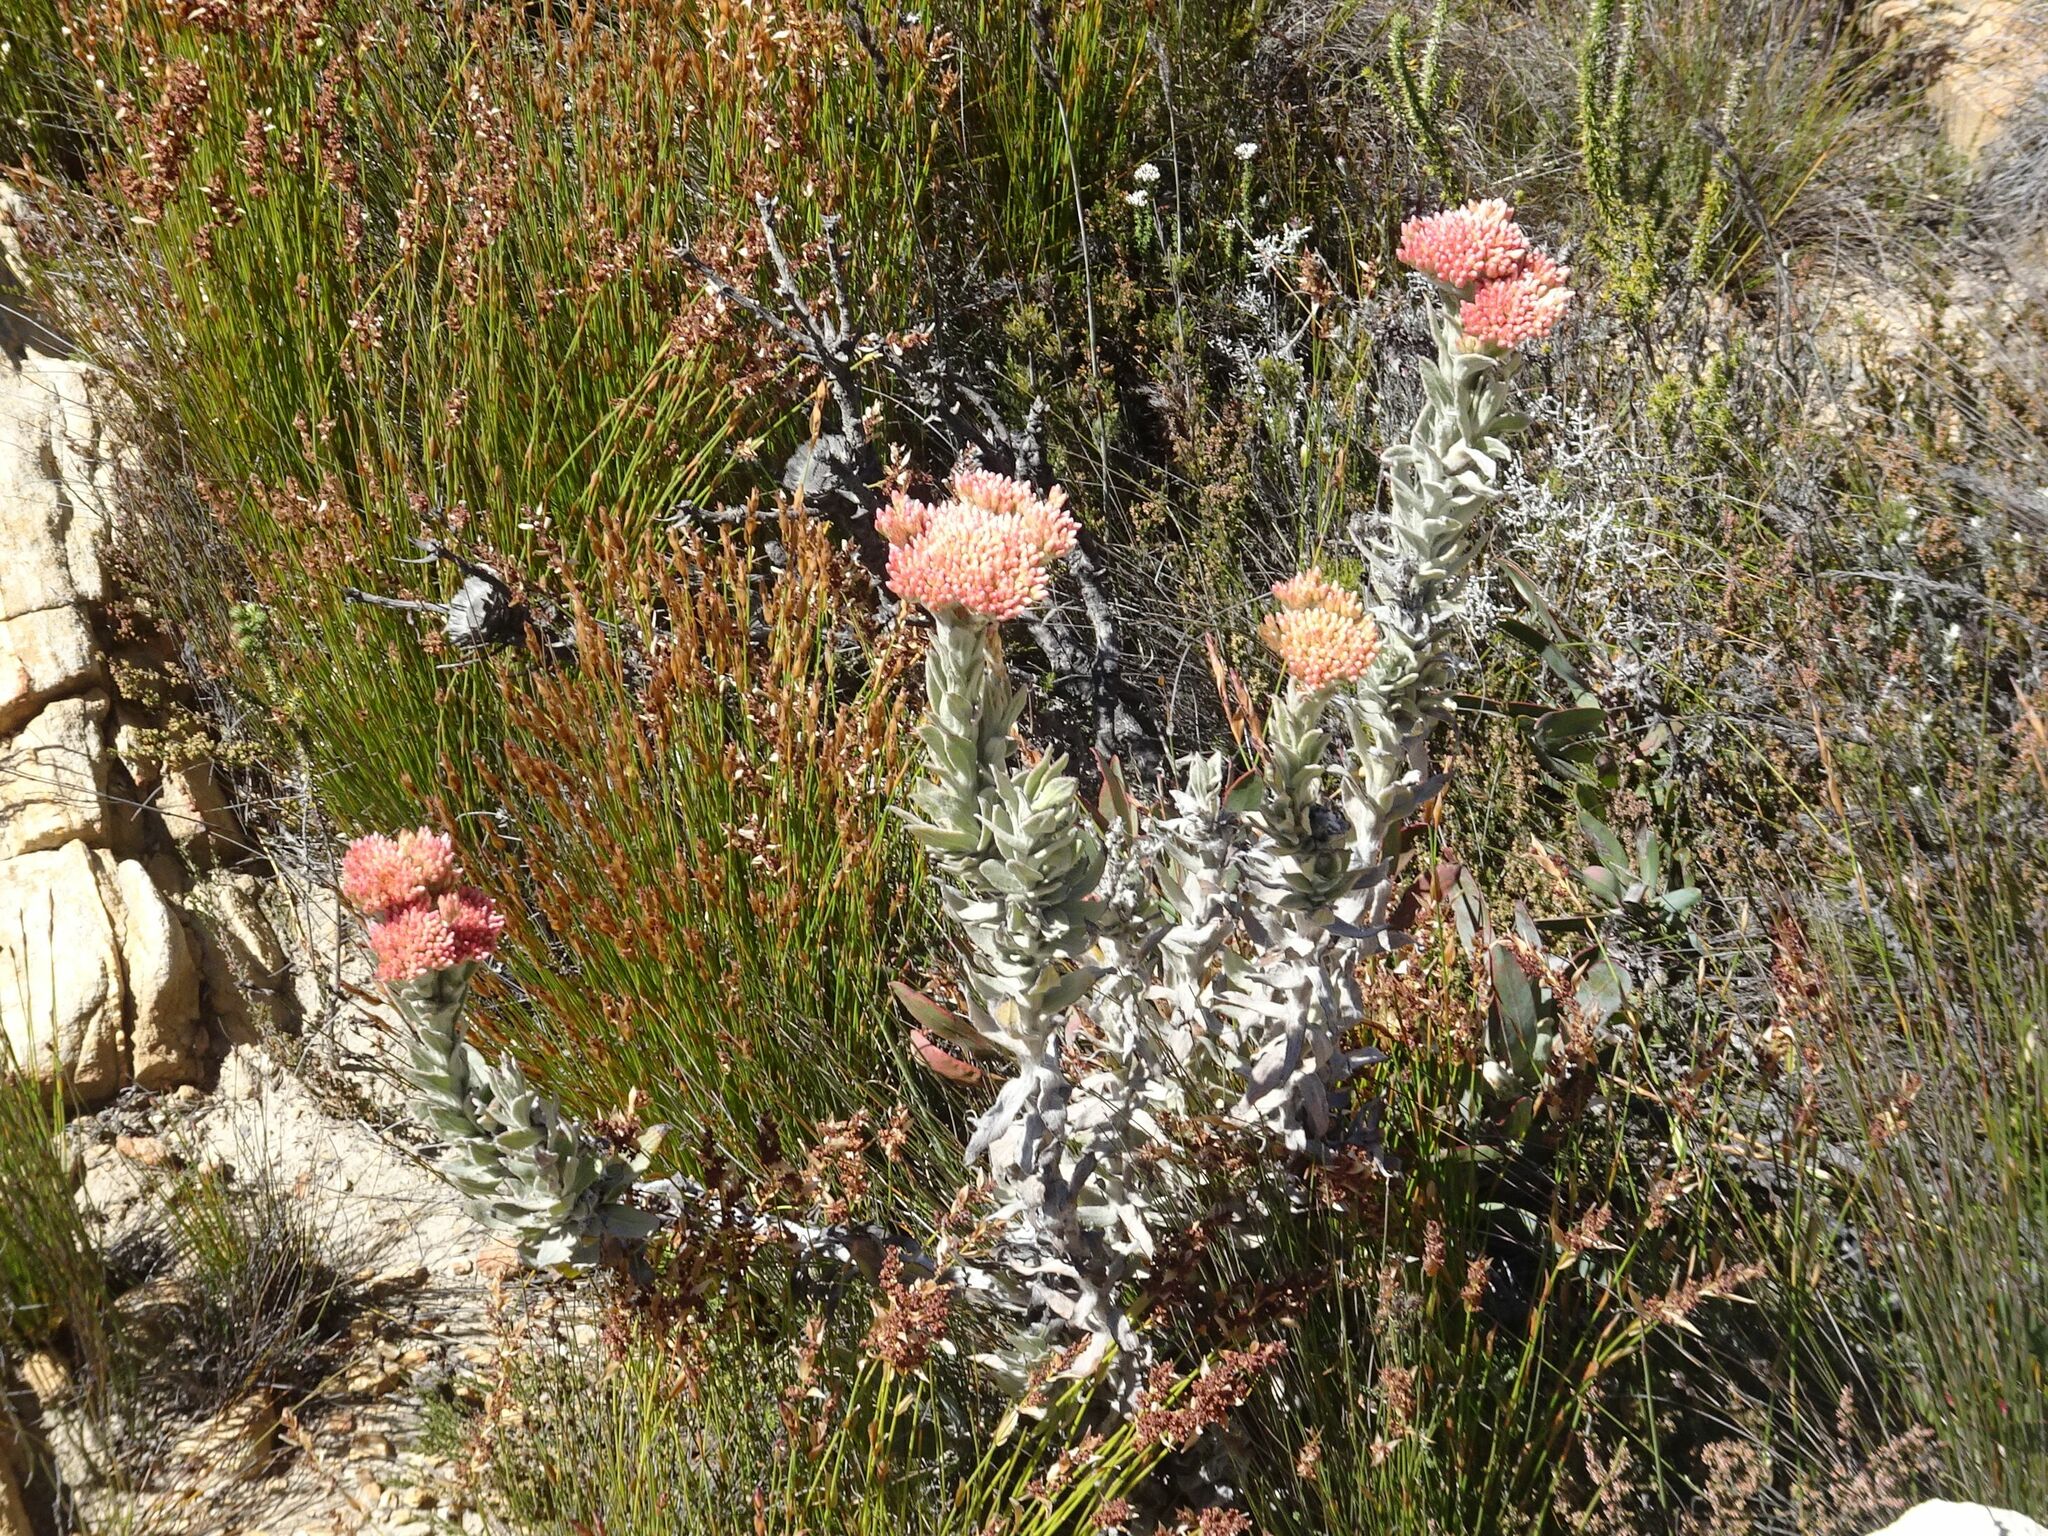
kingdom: Plantae
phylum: Tracheophyta
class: Magnoliopsida
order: Asterales
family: Asteraceae
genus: Syncarpha
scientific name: Syncarpha milleflora
